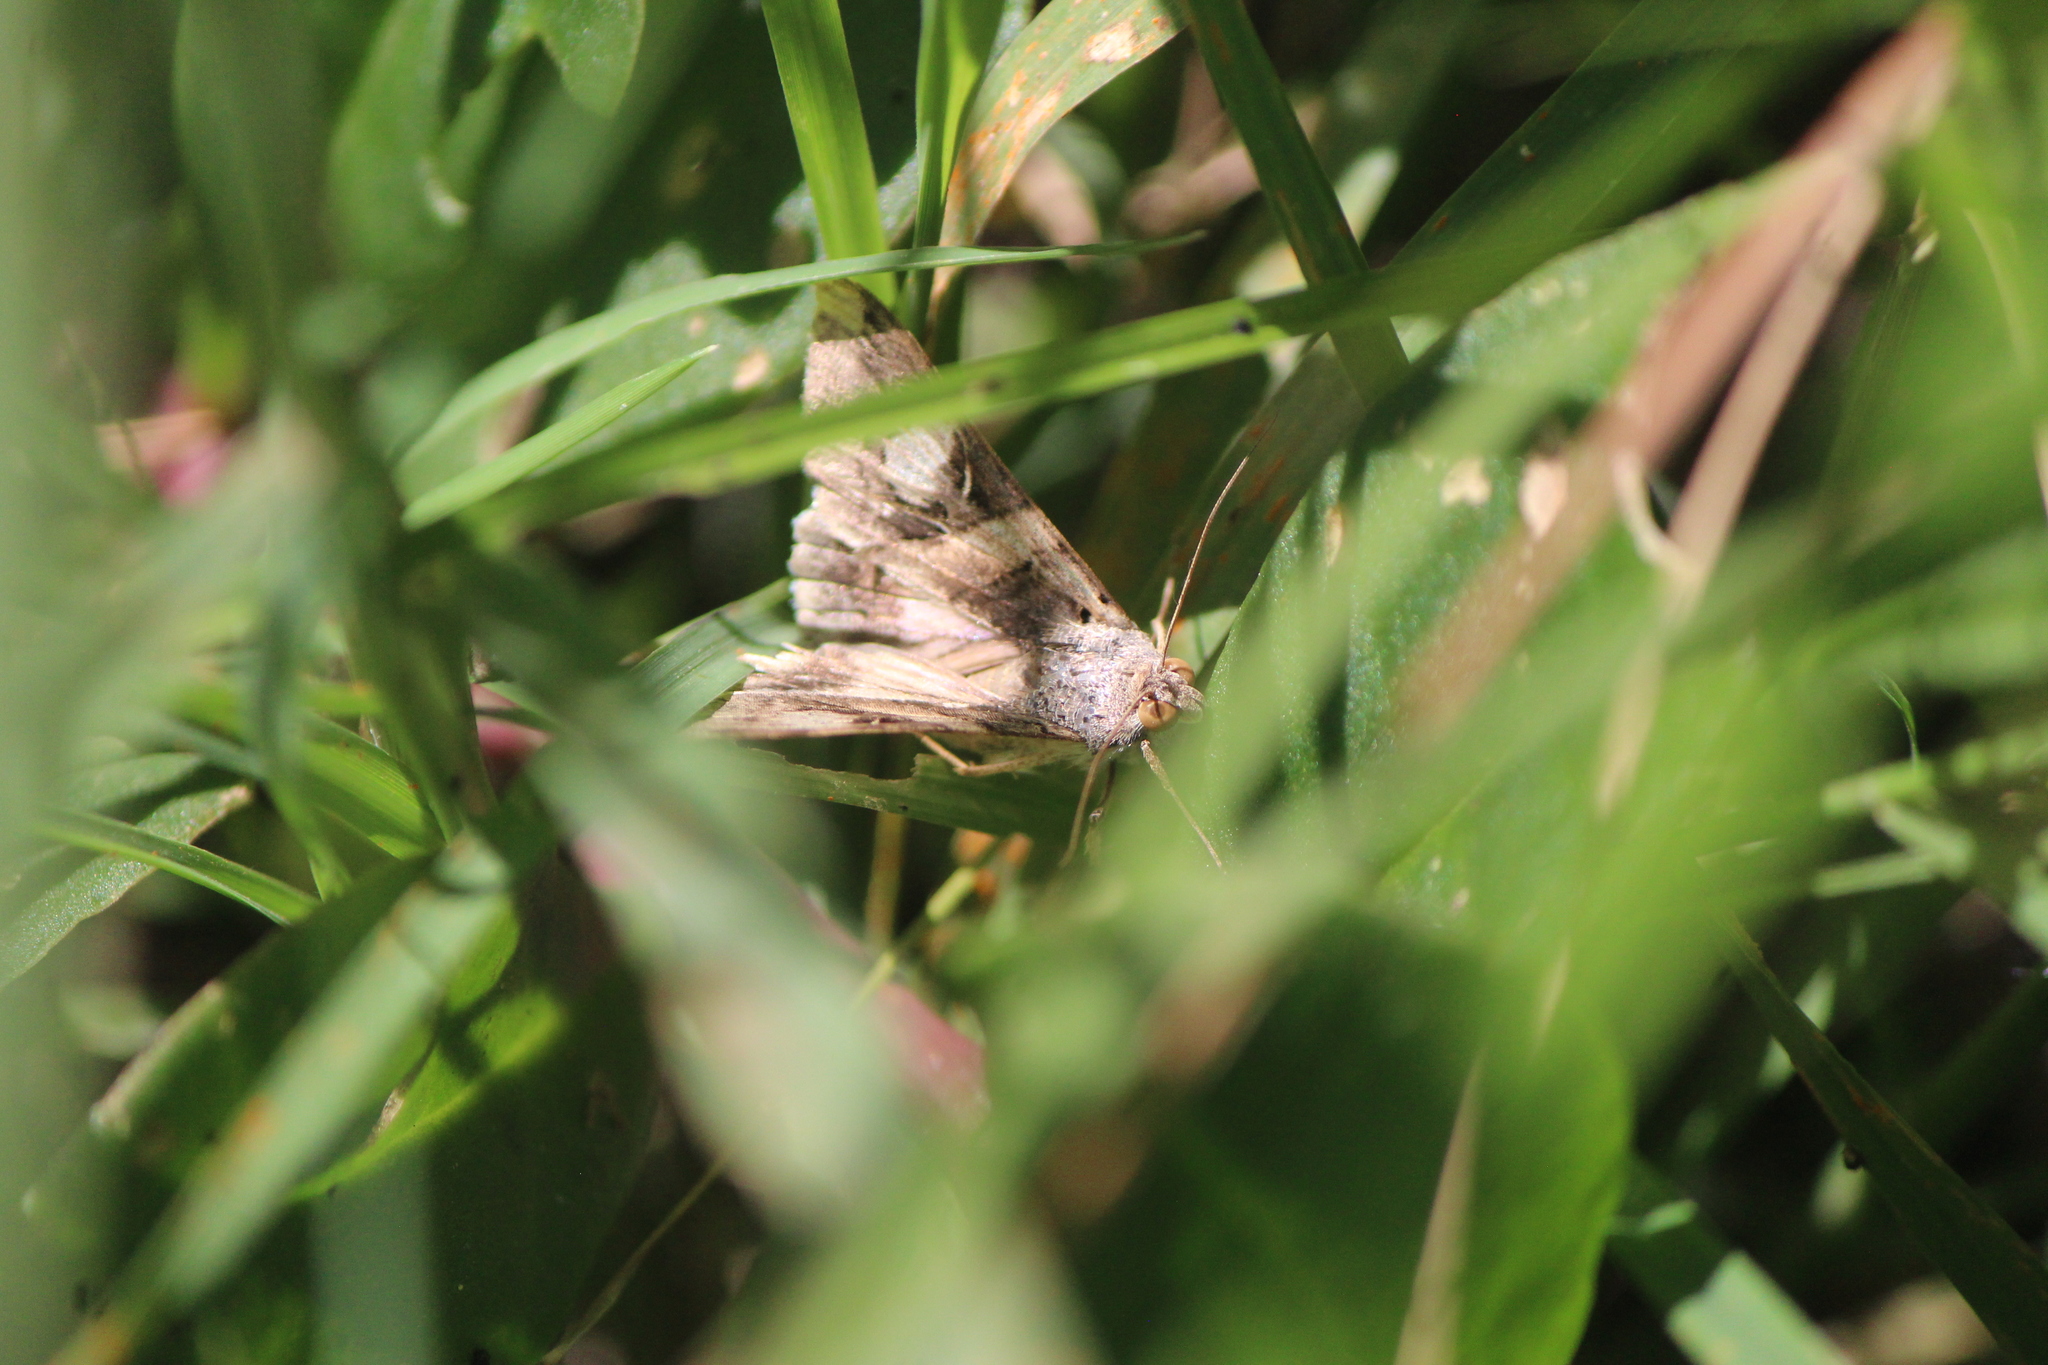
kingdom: Animalia
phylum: Arthropoda
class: Insecta
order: Lepidoptera
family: Erebidae
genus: Melipotis
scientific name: Melipotis indomita
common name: Moth
